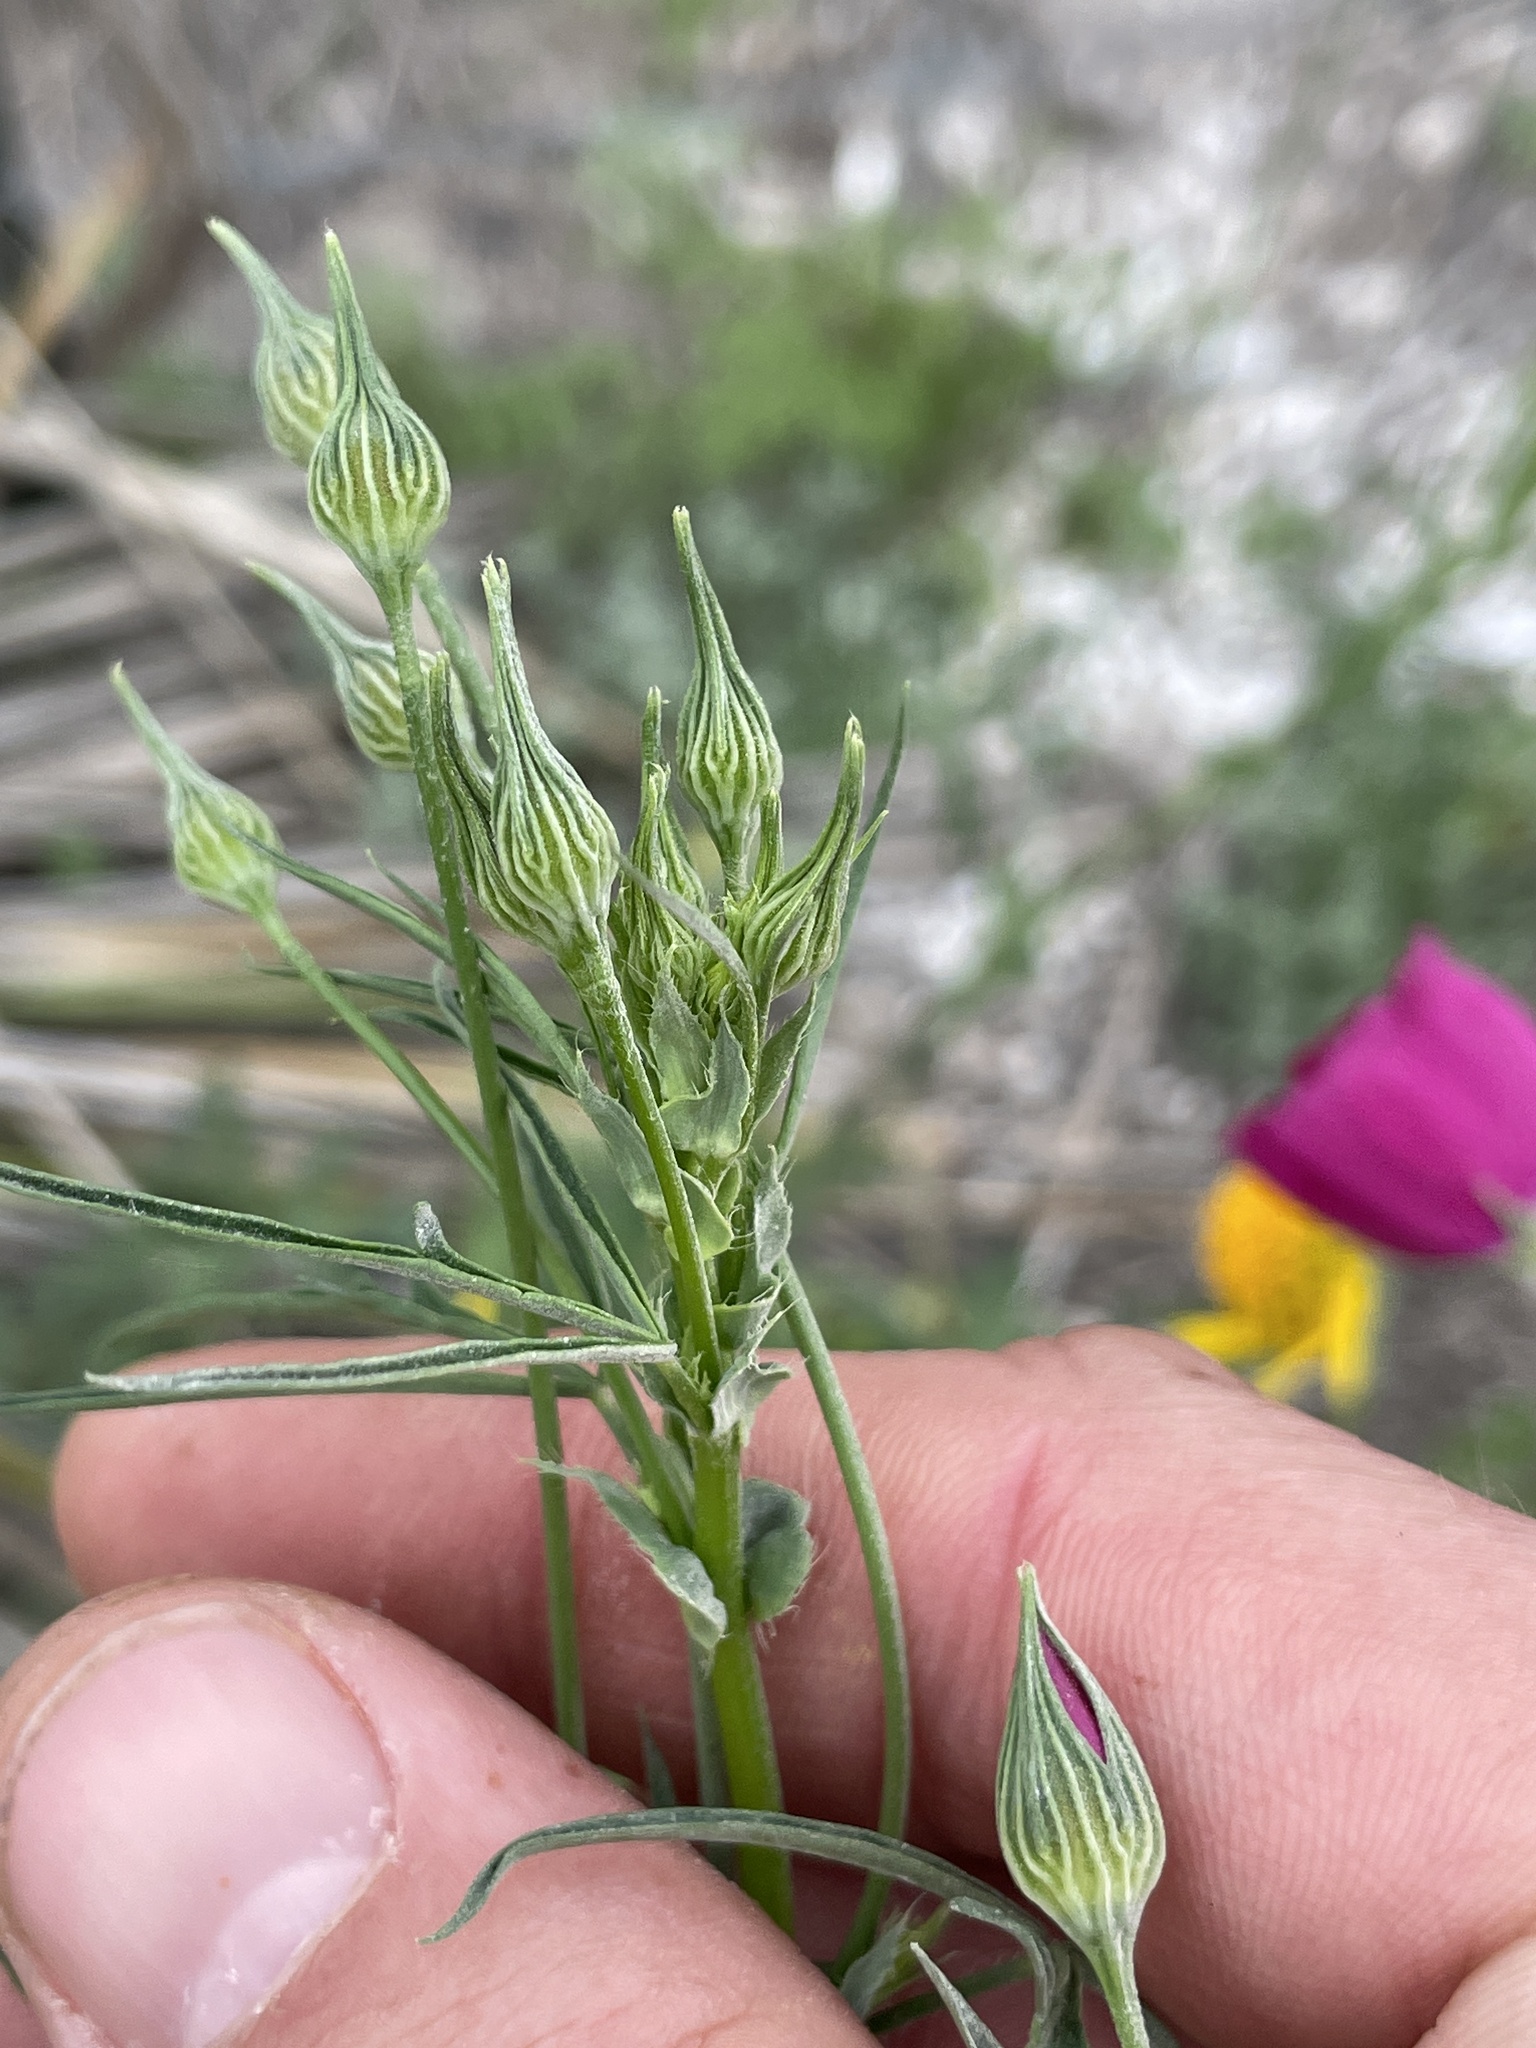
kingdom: Plantae
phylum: Tracheophyta
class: Magnoliopsida
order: Malvales
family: Malvaceae
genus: Callirhoe
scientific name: Callirhoe leiocarpa
